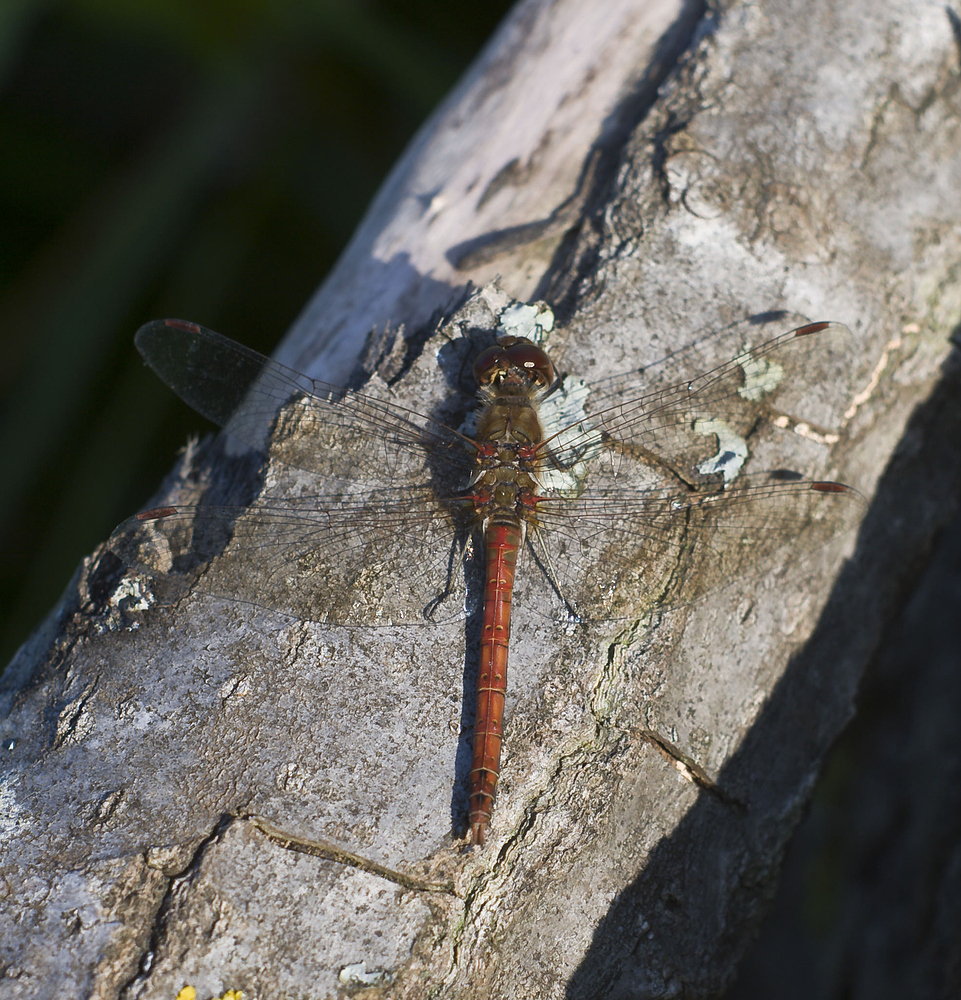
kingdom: Animalia
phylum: Arthropoda
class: Insecta
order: Odonata
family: Libellulidae
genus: Sympetrum
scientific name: Sympetrum striolatum
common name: Common darter
